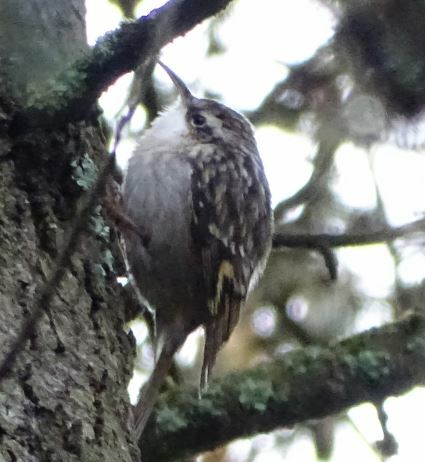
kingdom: Animalia
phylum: Chordata
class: Aves
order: Passeriformes
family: Certhiidae
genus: Certhia
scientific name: Certhia brachydactyla
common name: Short-toed treecreeper
